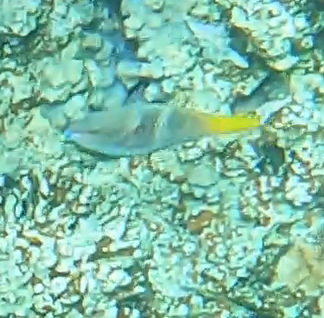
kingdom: Animalia
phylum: Chordata
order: Perciformes
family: Scaridae
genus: Scarus
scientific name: Scarus ferrugineus
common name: Rusty parrotfish
